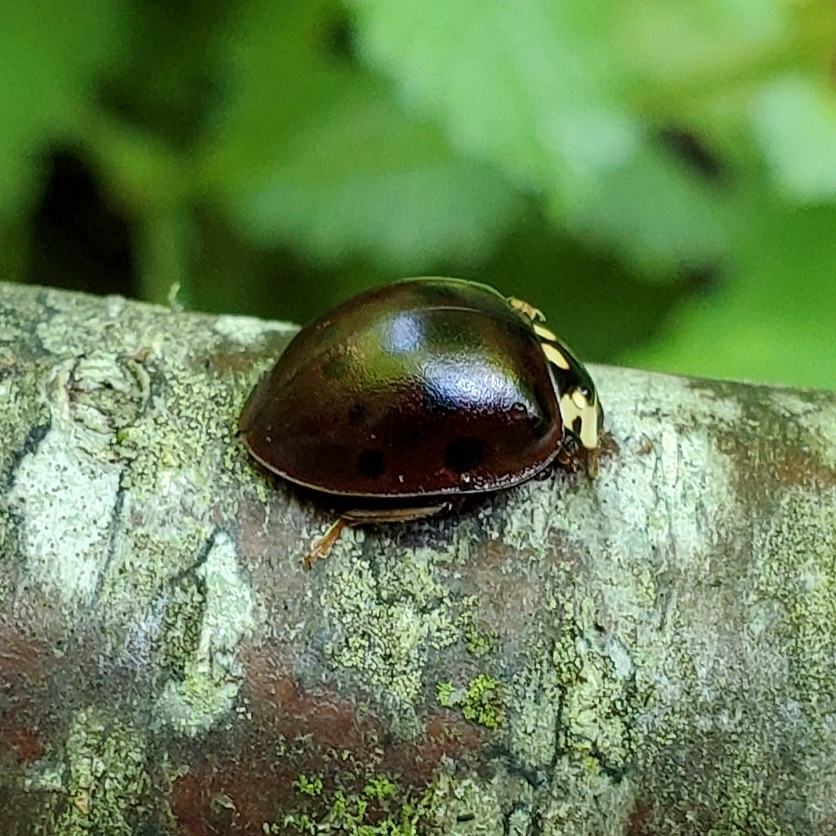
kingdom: Animalia
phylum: Arthropoda
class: Insecta
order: Coleoptera
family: Coccinellidae
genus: Anatis
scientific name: Anatis labiculata
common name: Fifteen-spotted lady beetle
